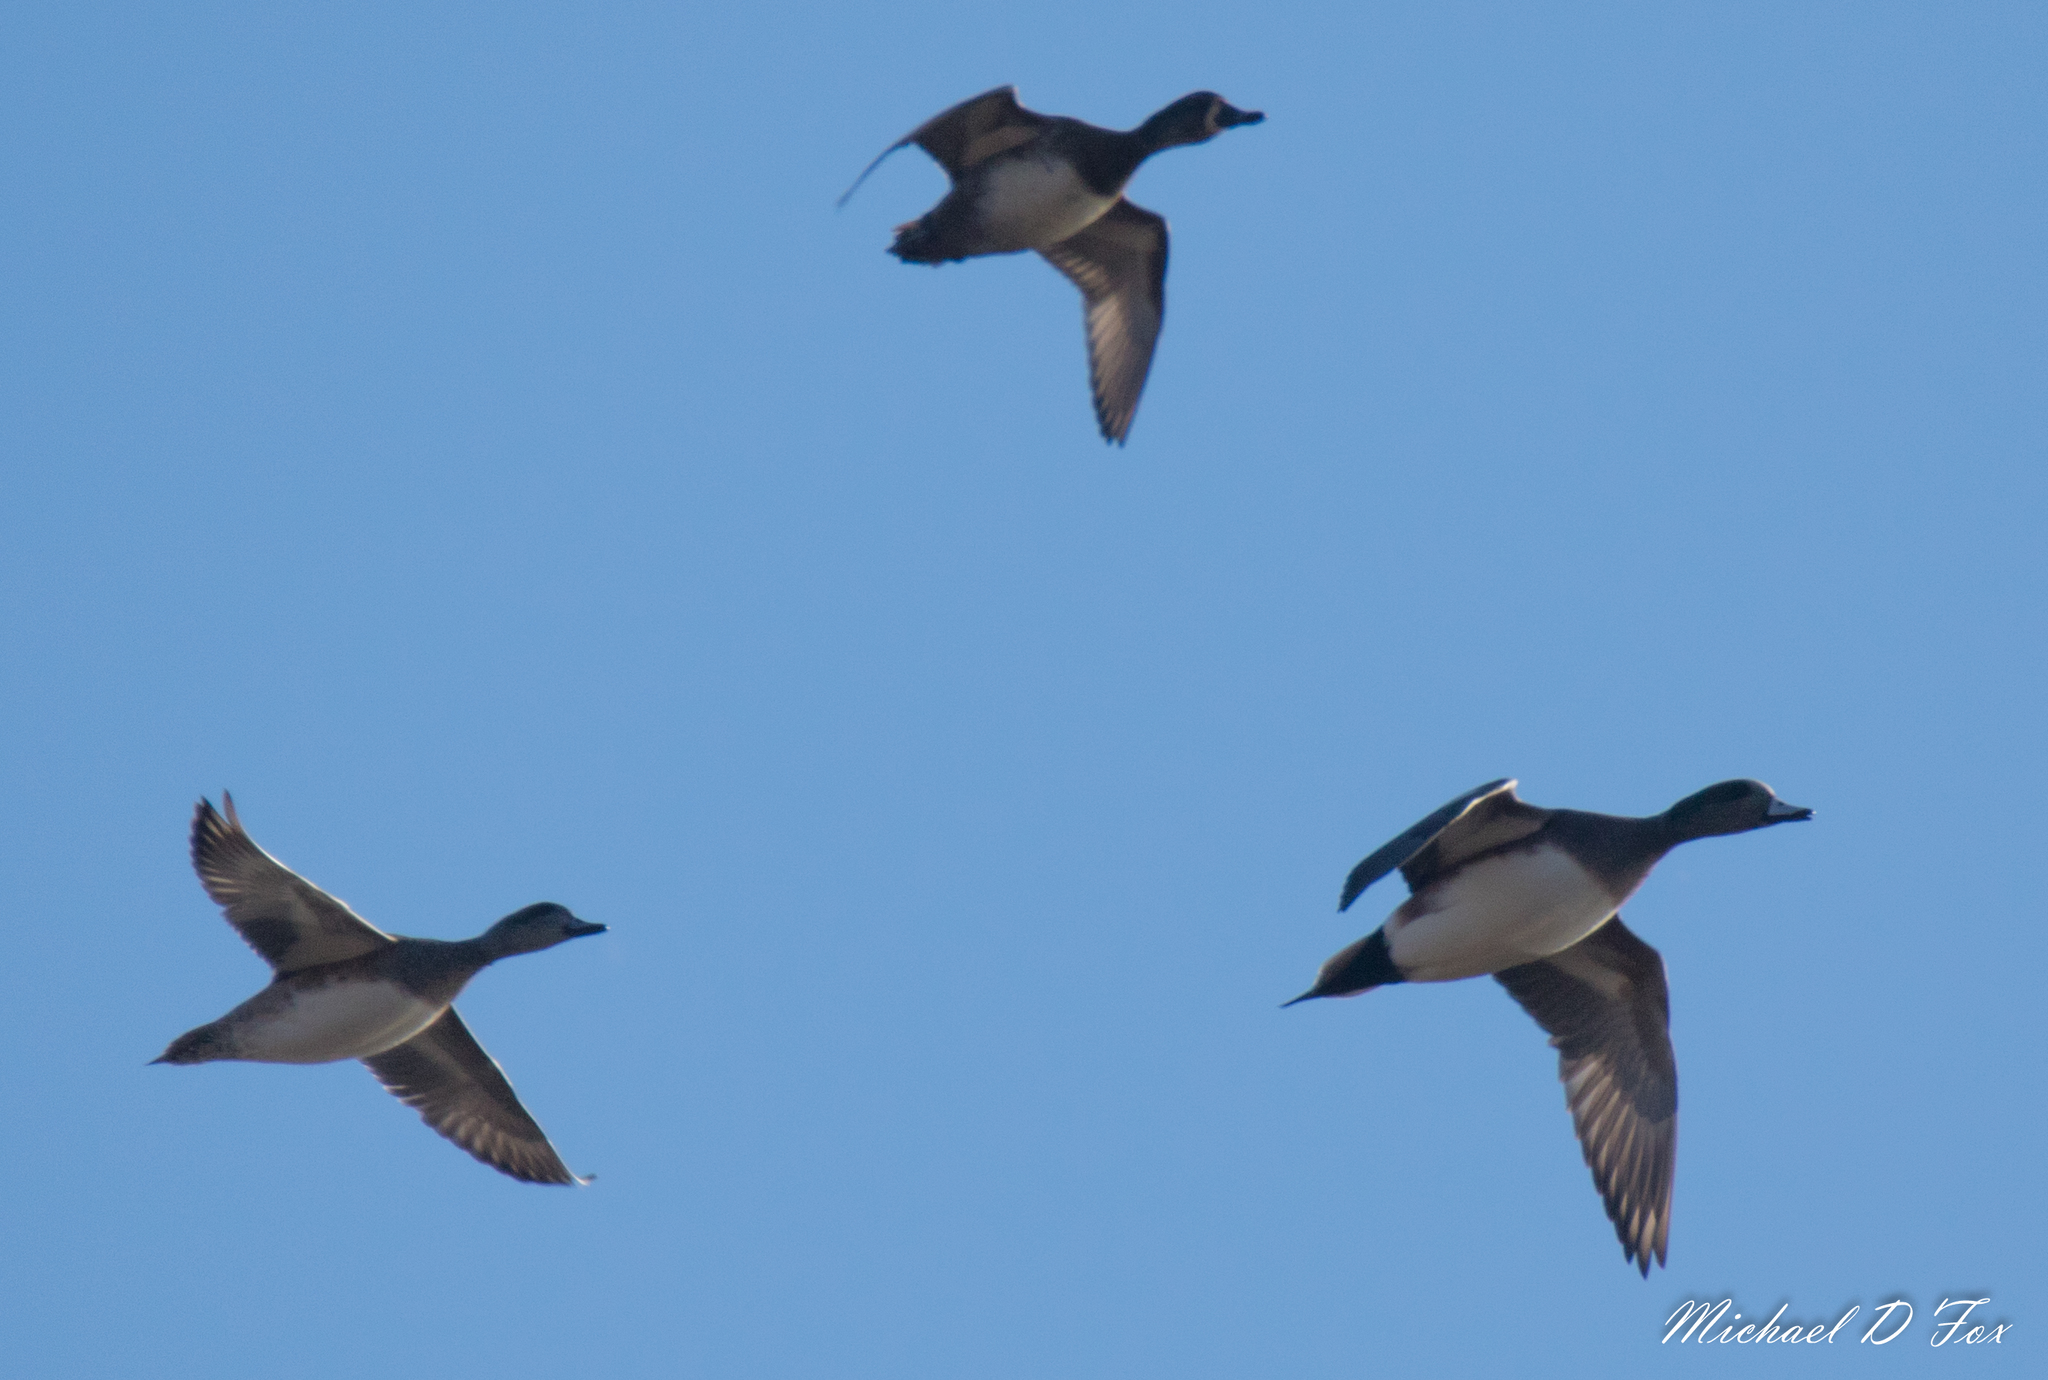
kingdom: Animalia
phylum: Chordata
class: Aves
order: Anseriformes
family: Anatidae
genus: Mareca
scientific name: Mareca americana
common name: American wigeon
